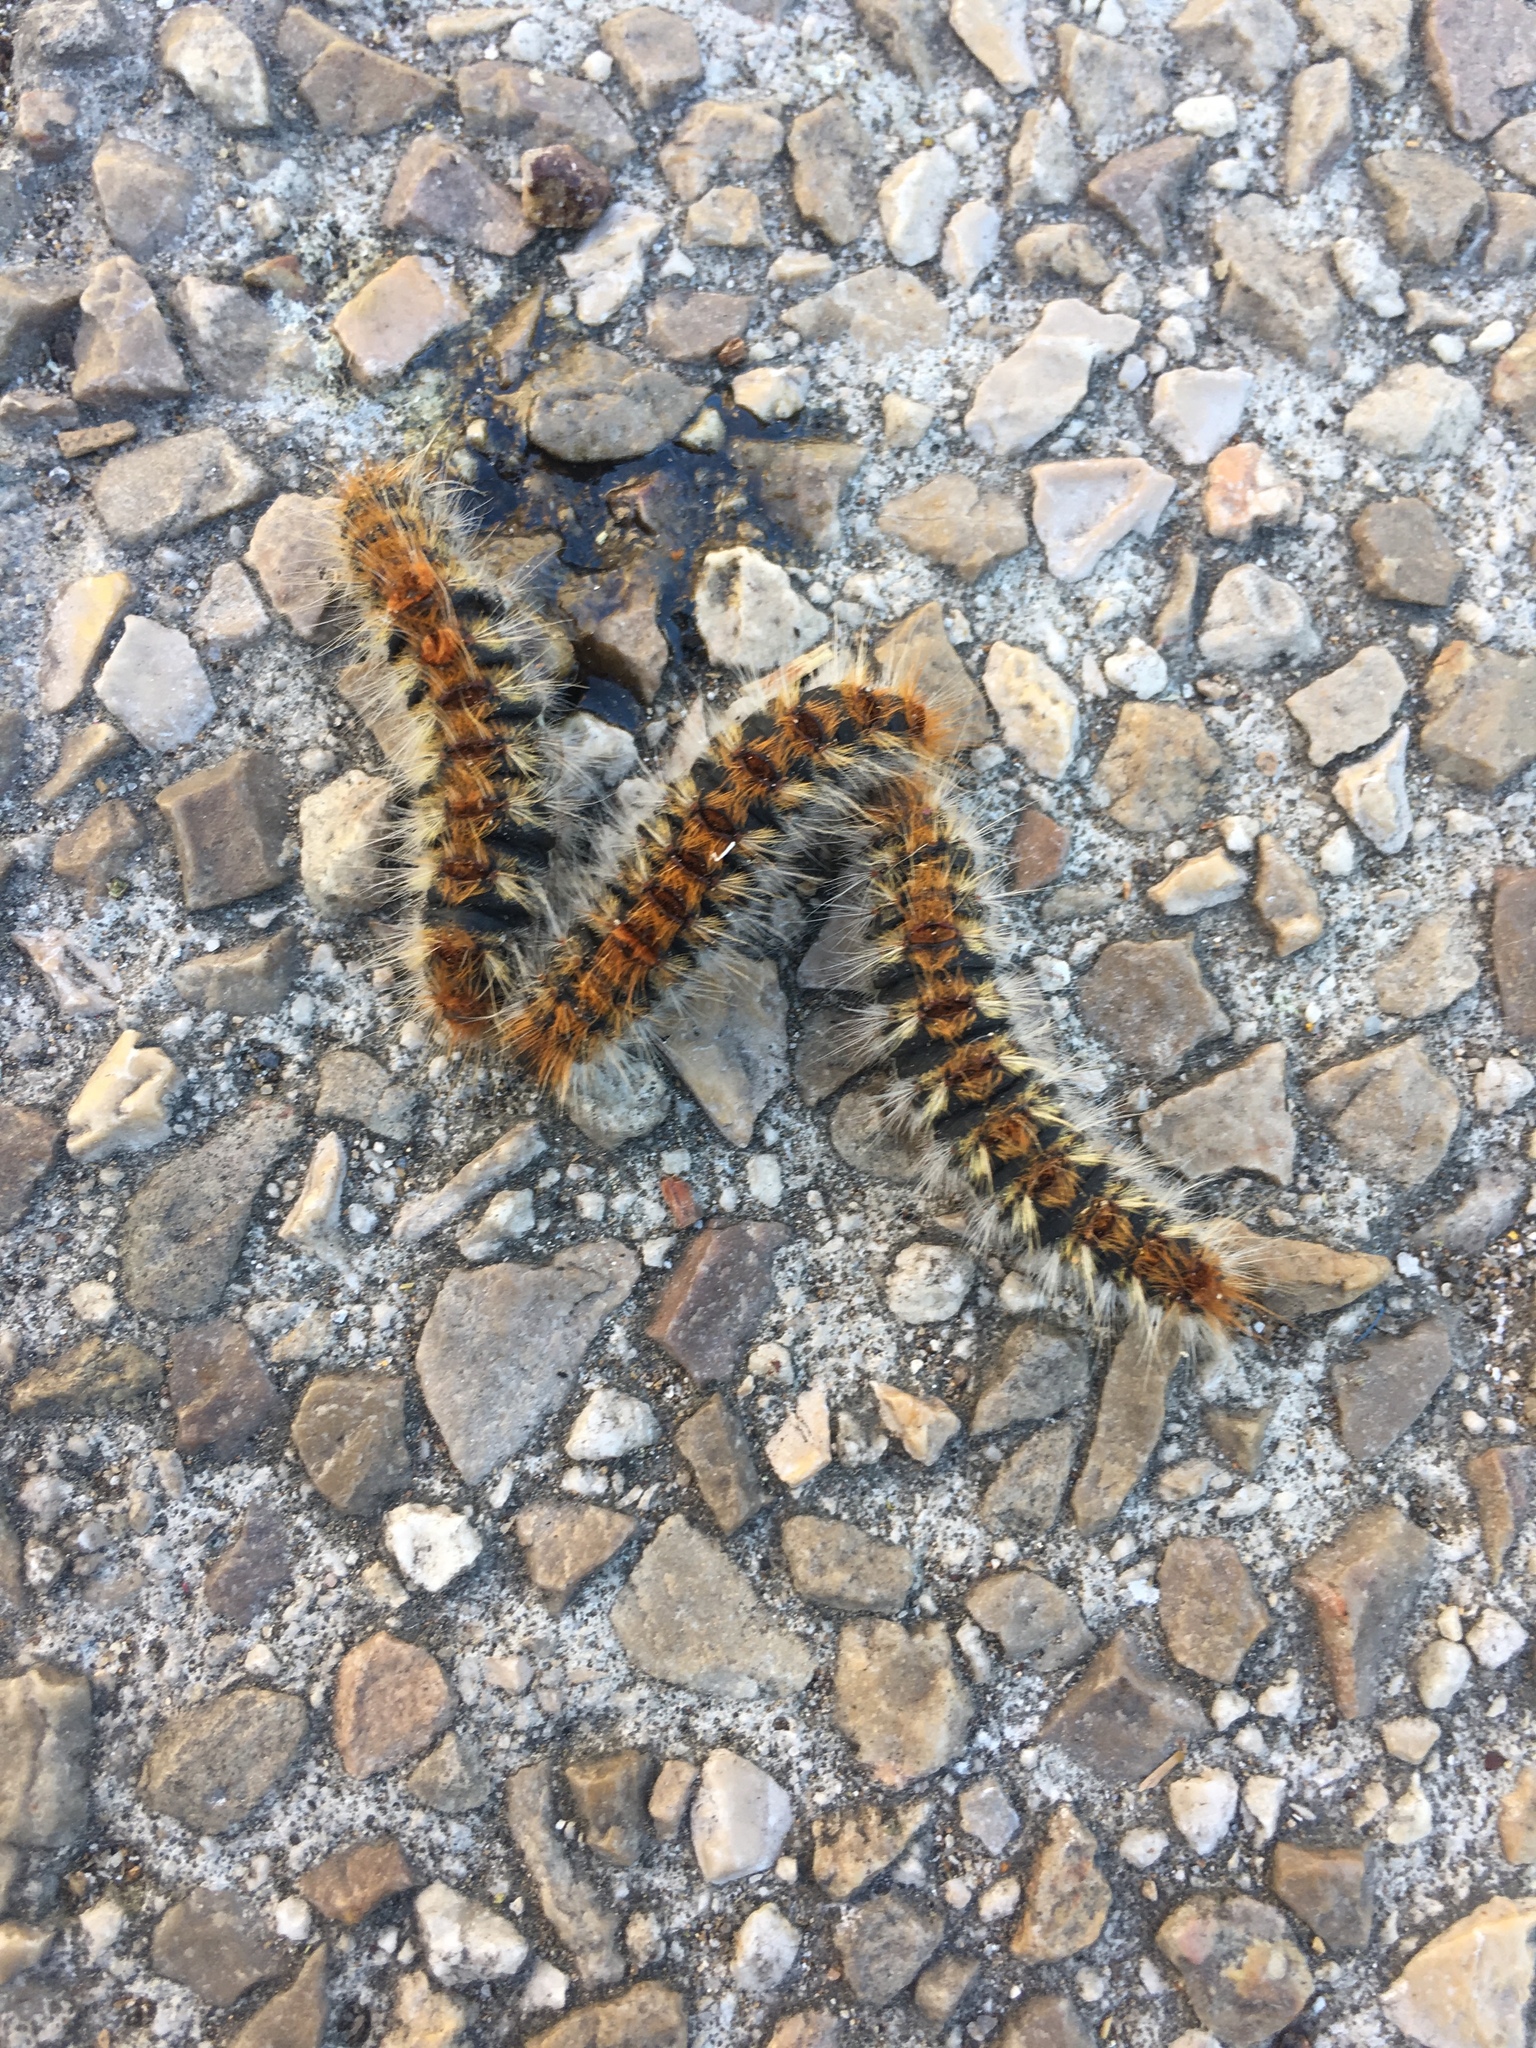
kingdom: Animalia
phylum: Arthropoda
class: Insecta
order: Lepidoptera
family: Notodontidae
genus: Thaumetopoea
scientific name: Thaumetopoea pityocampa
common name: Pine processionary
